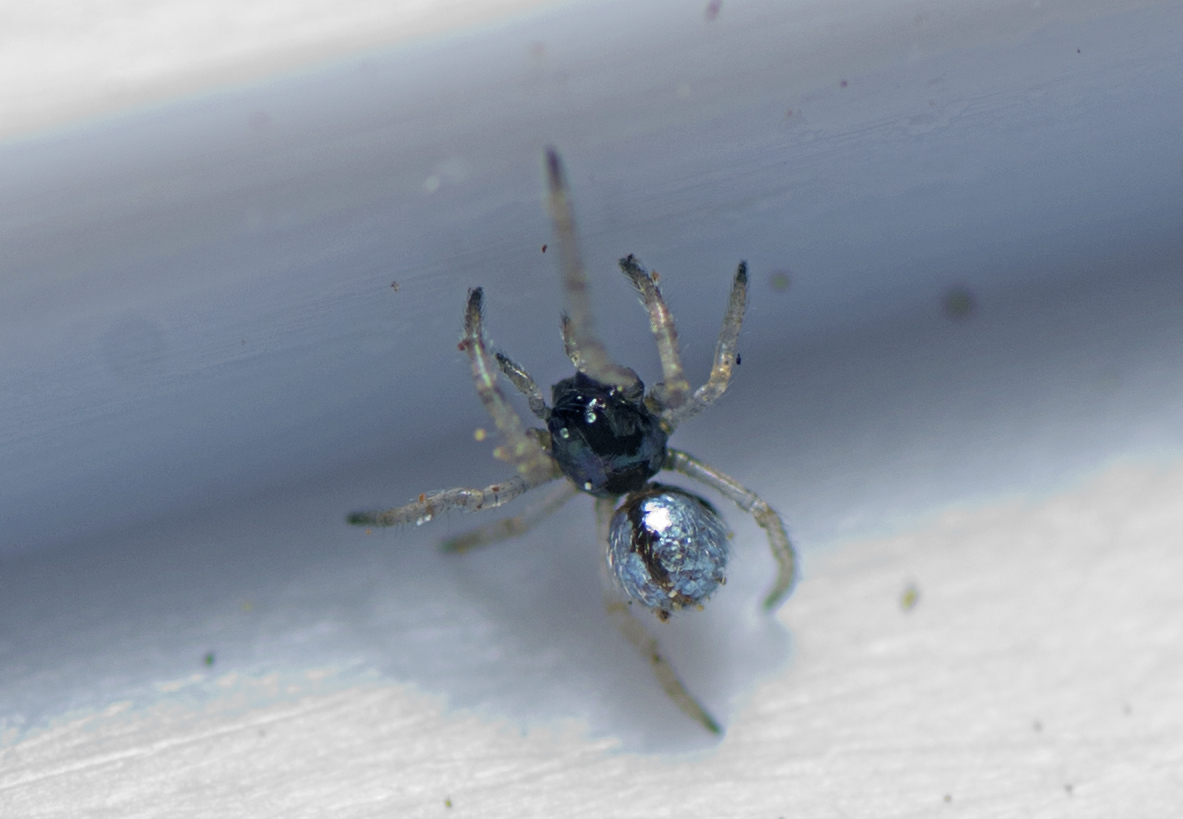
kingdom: Animalia
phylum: Arthropoda
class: Arachnida
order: Araneae
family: Theridiidae
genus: Argyrodes
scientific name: Argyrodes antipodianus
